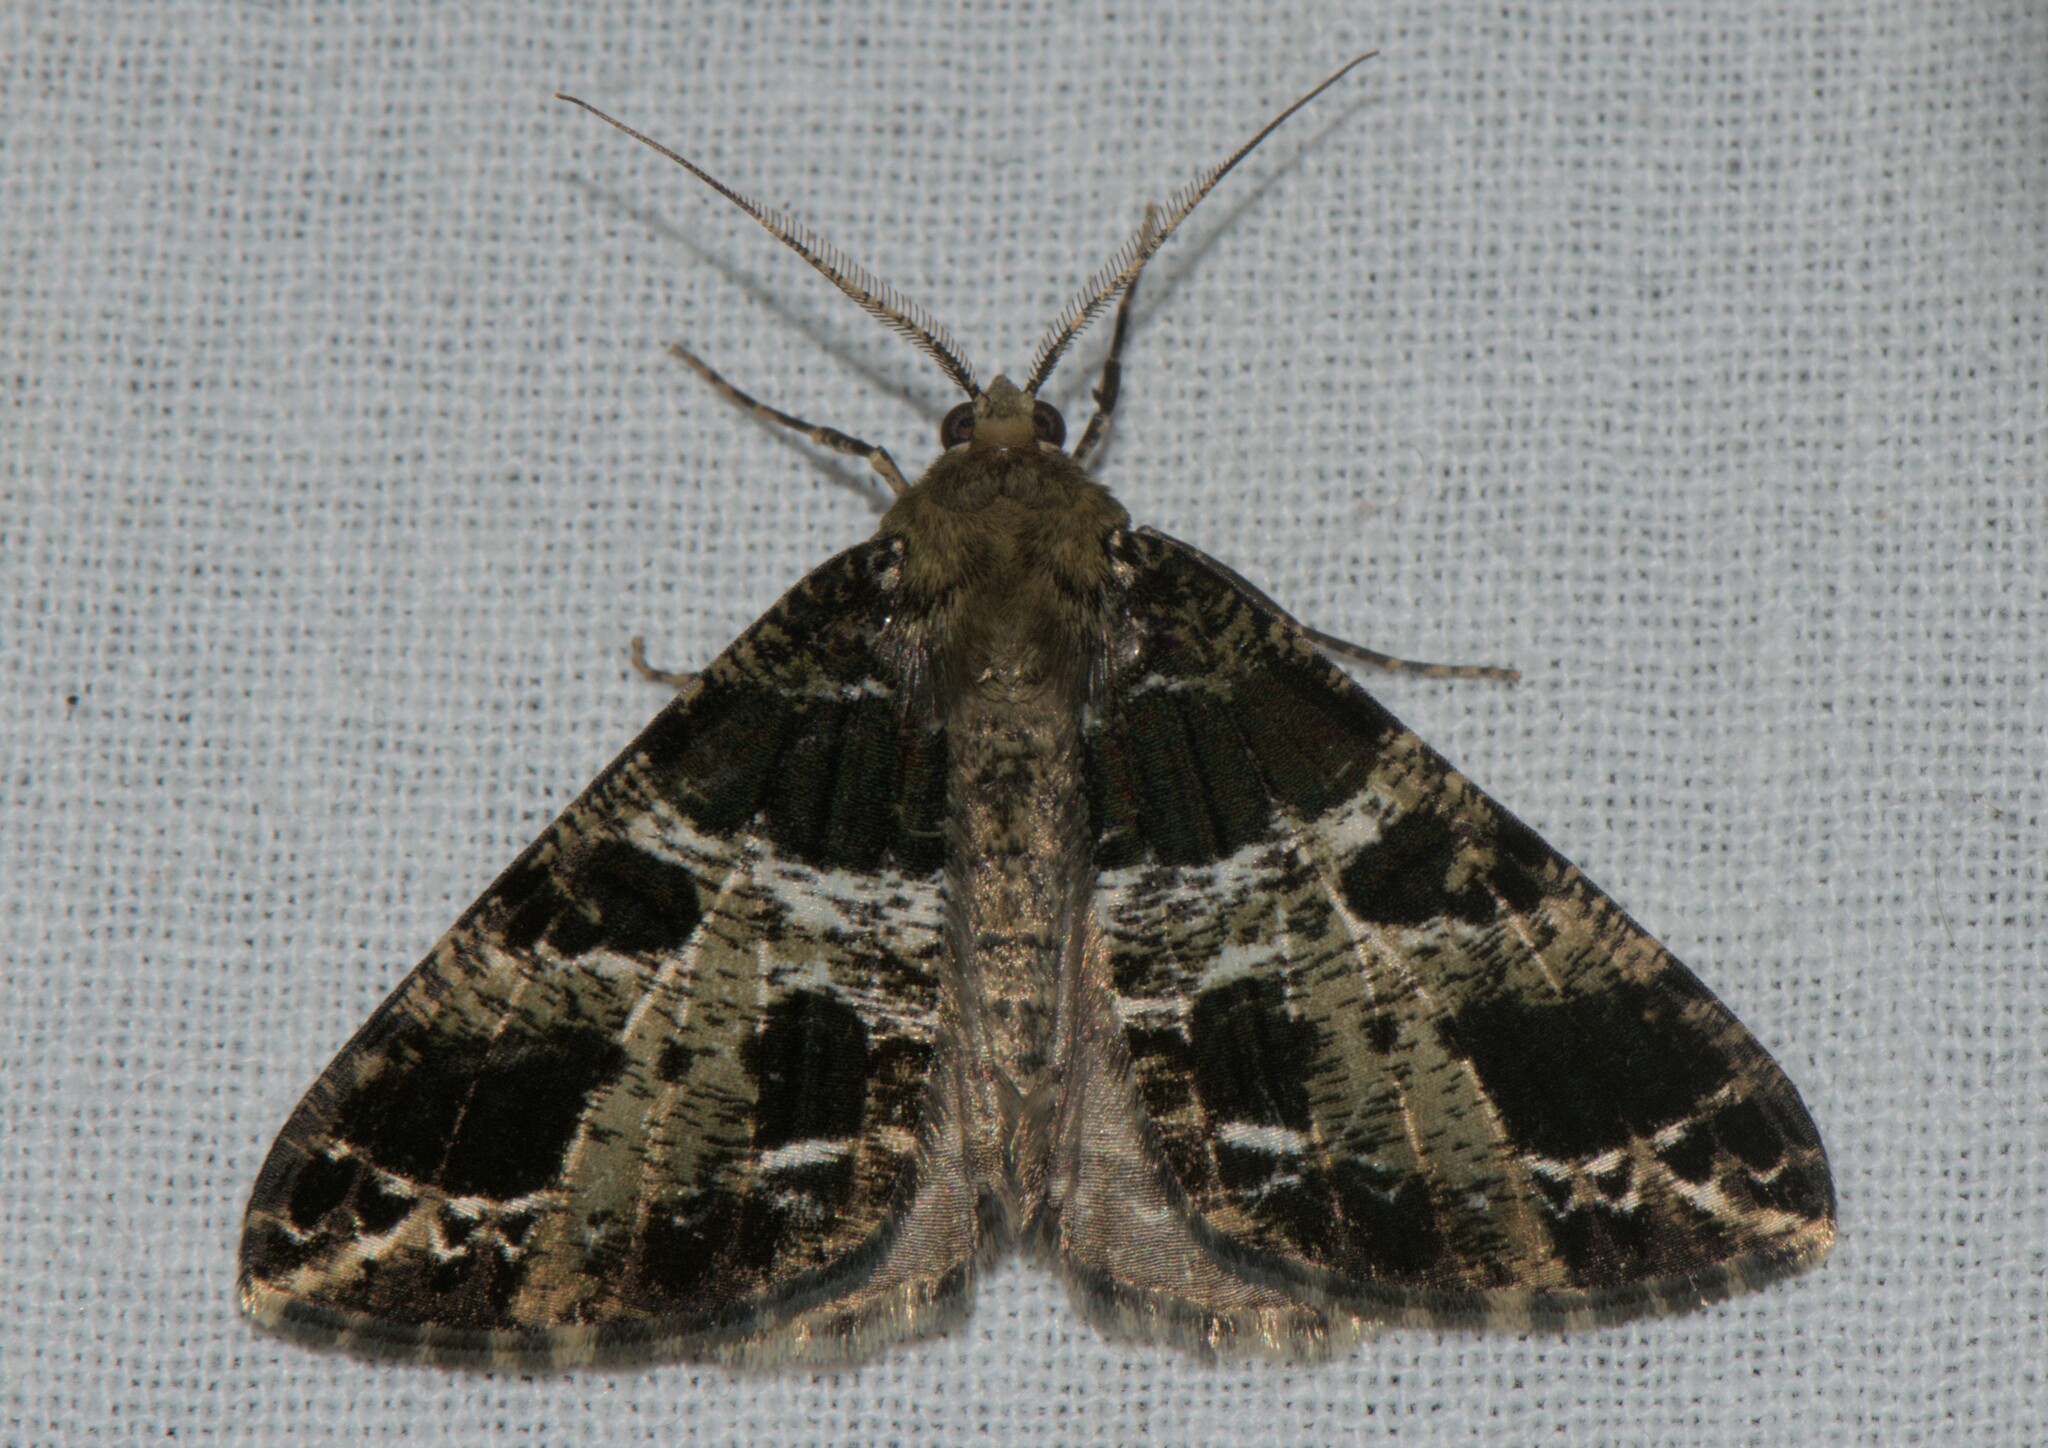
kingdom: Animalia
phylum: Arthropoda
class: Insecta
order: Lepidoptera
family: Geometridae
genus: Arichanna
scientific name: Arichanna
